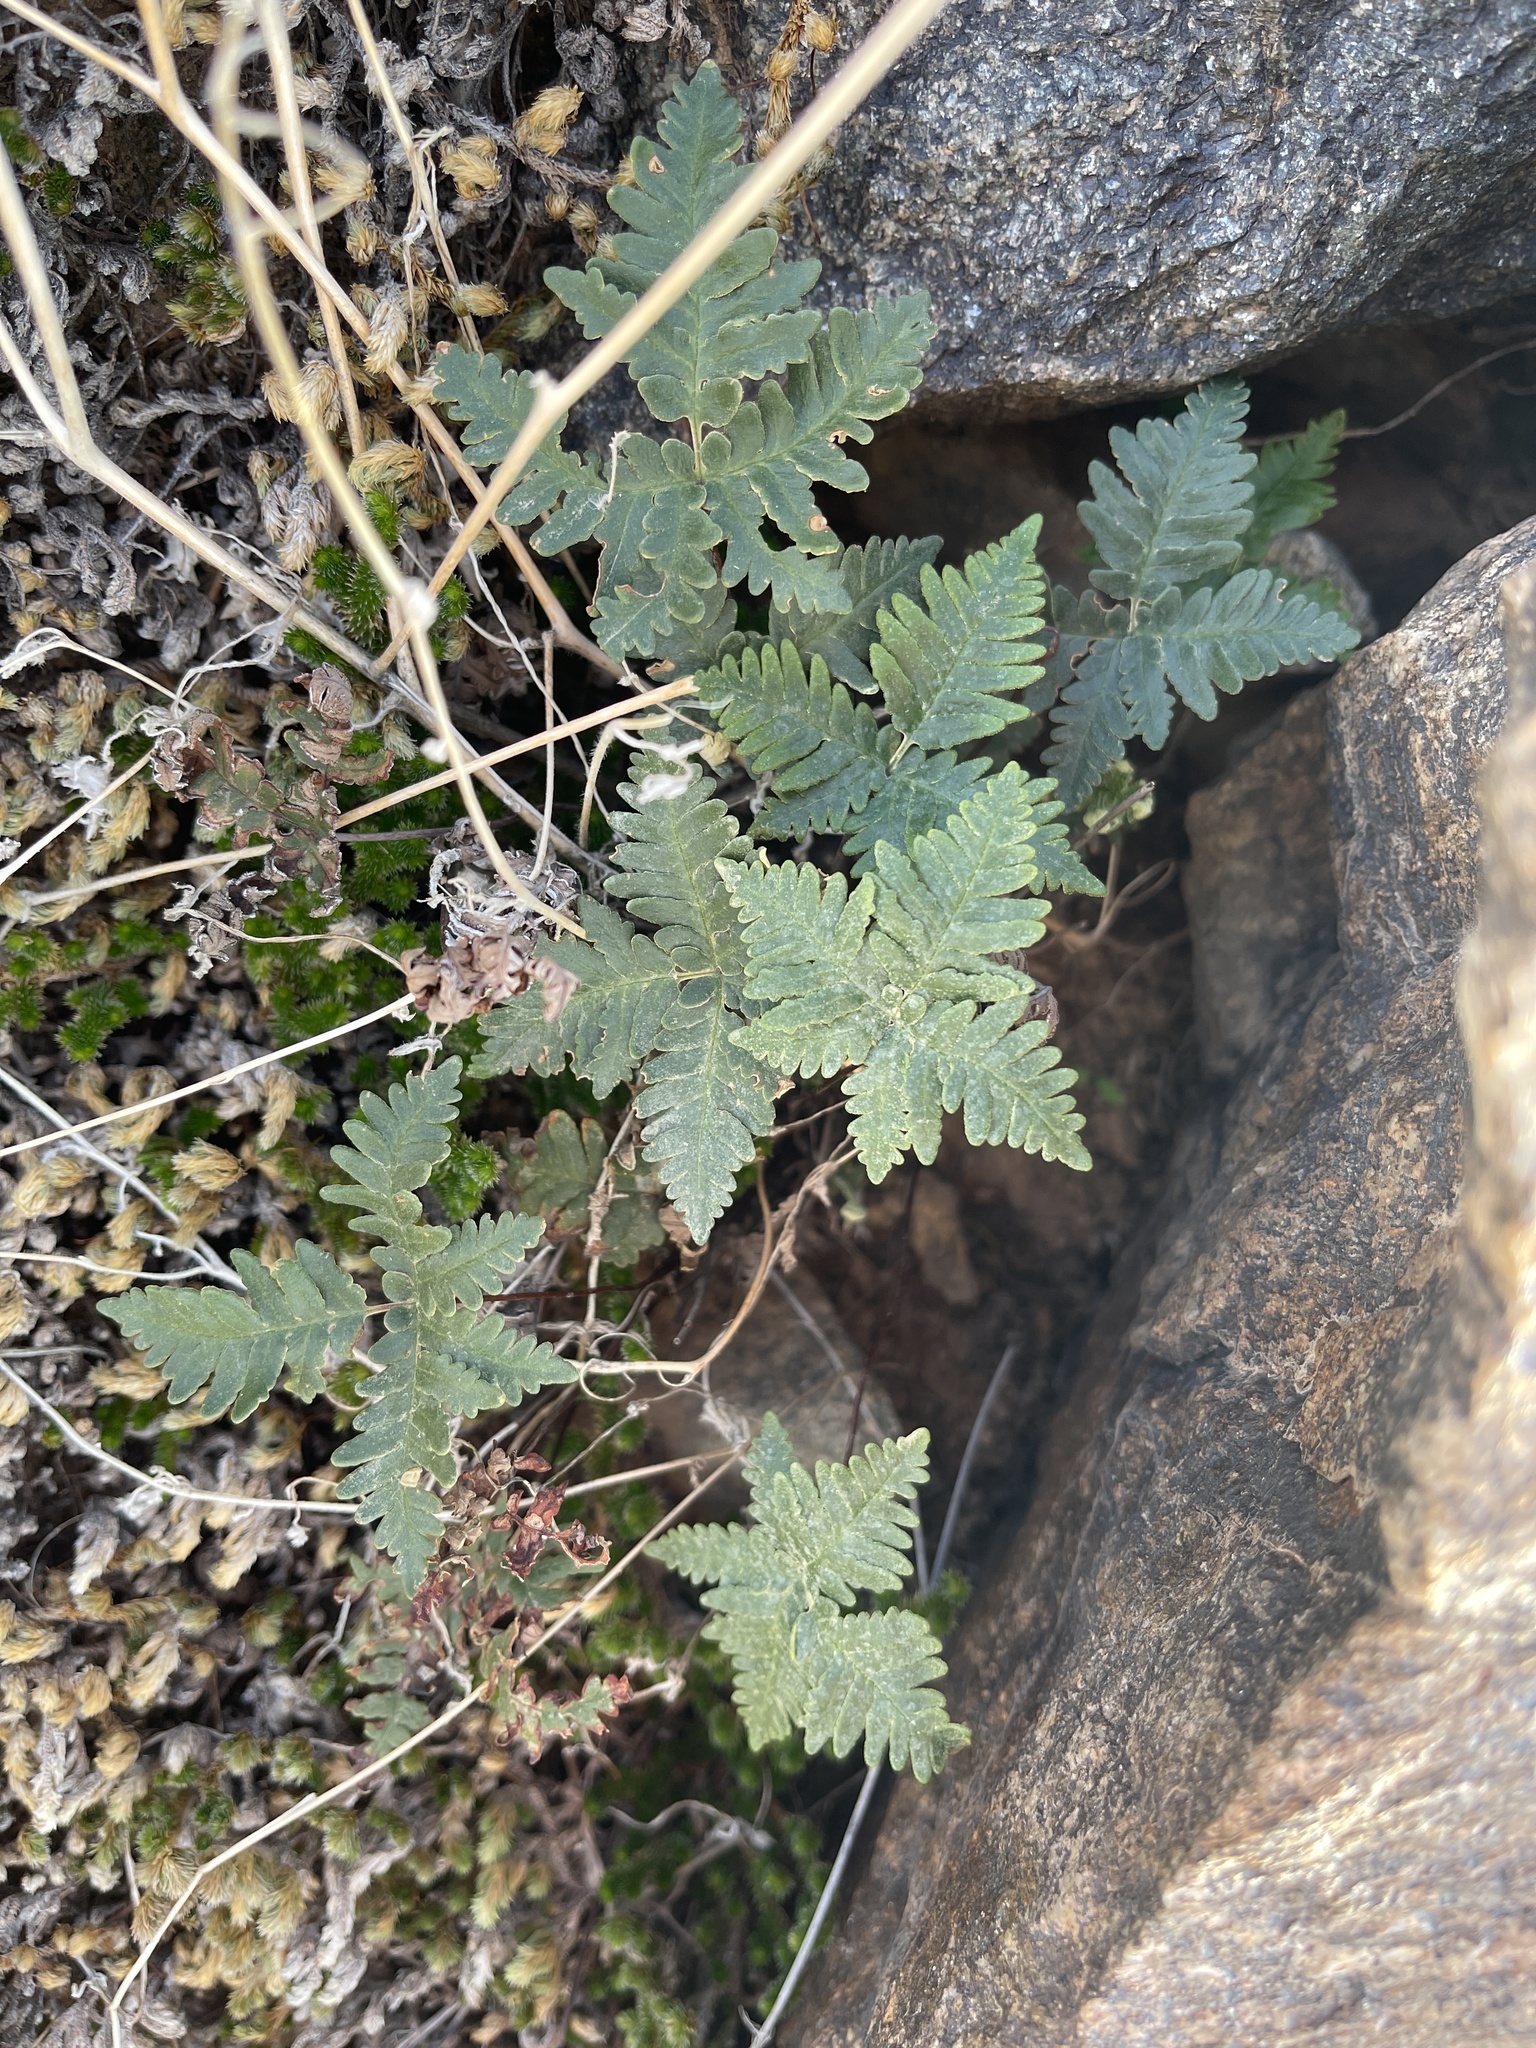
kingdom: Plantae
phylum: Tracheophyta
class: Polypodiopsida
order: Polypodiales
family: Pteridaceae
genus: Notholaena
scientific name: Notholaena standleyi
